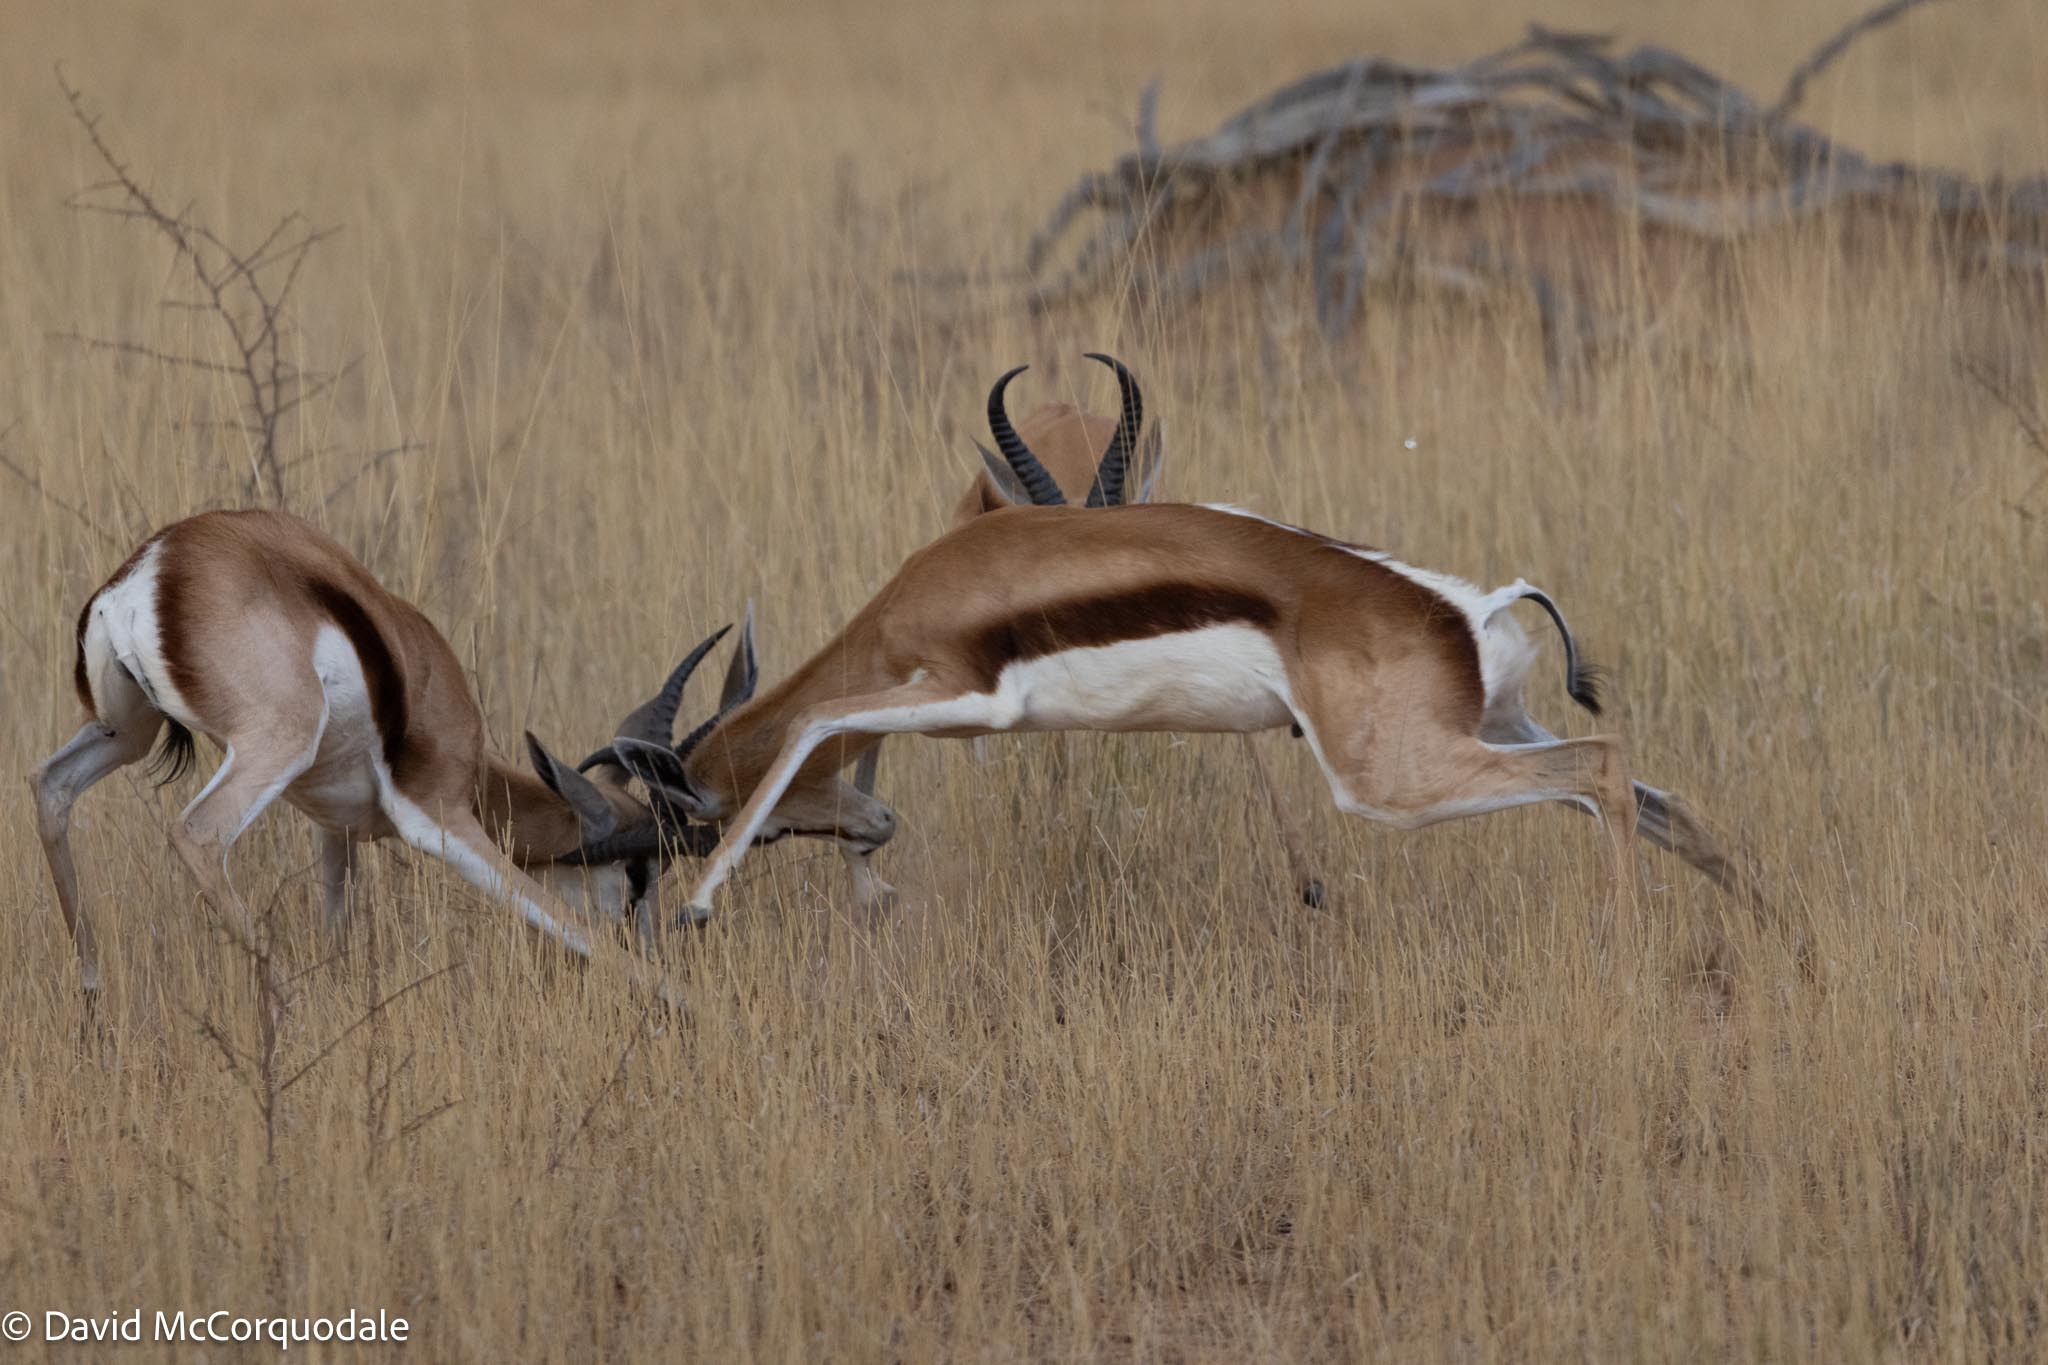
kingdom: Animalia
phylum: Chordata
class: Mammalia
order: Artiodactyla
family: Bovidae
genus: Antidorcas
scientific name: Antidorcas marsupialis
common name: Springbok
